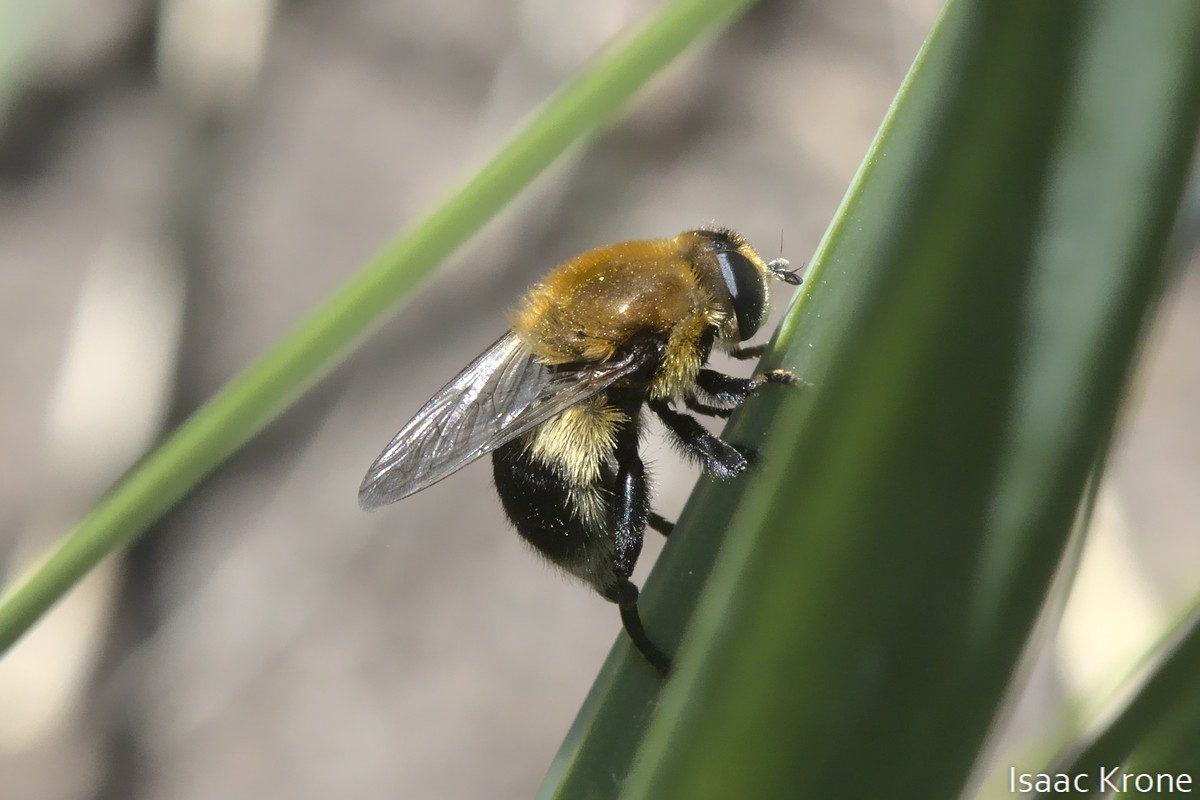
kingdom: Animalia
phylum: Arthropoda
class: Insecta
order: Diptera
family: Syrphidae
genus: Merodon
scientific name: Merodon equestris
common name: Greater bulb-fly
